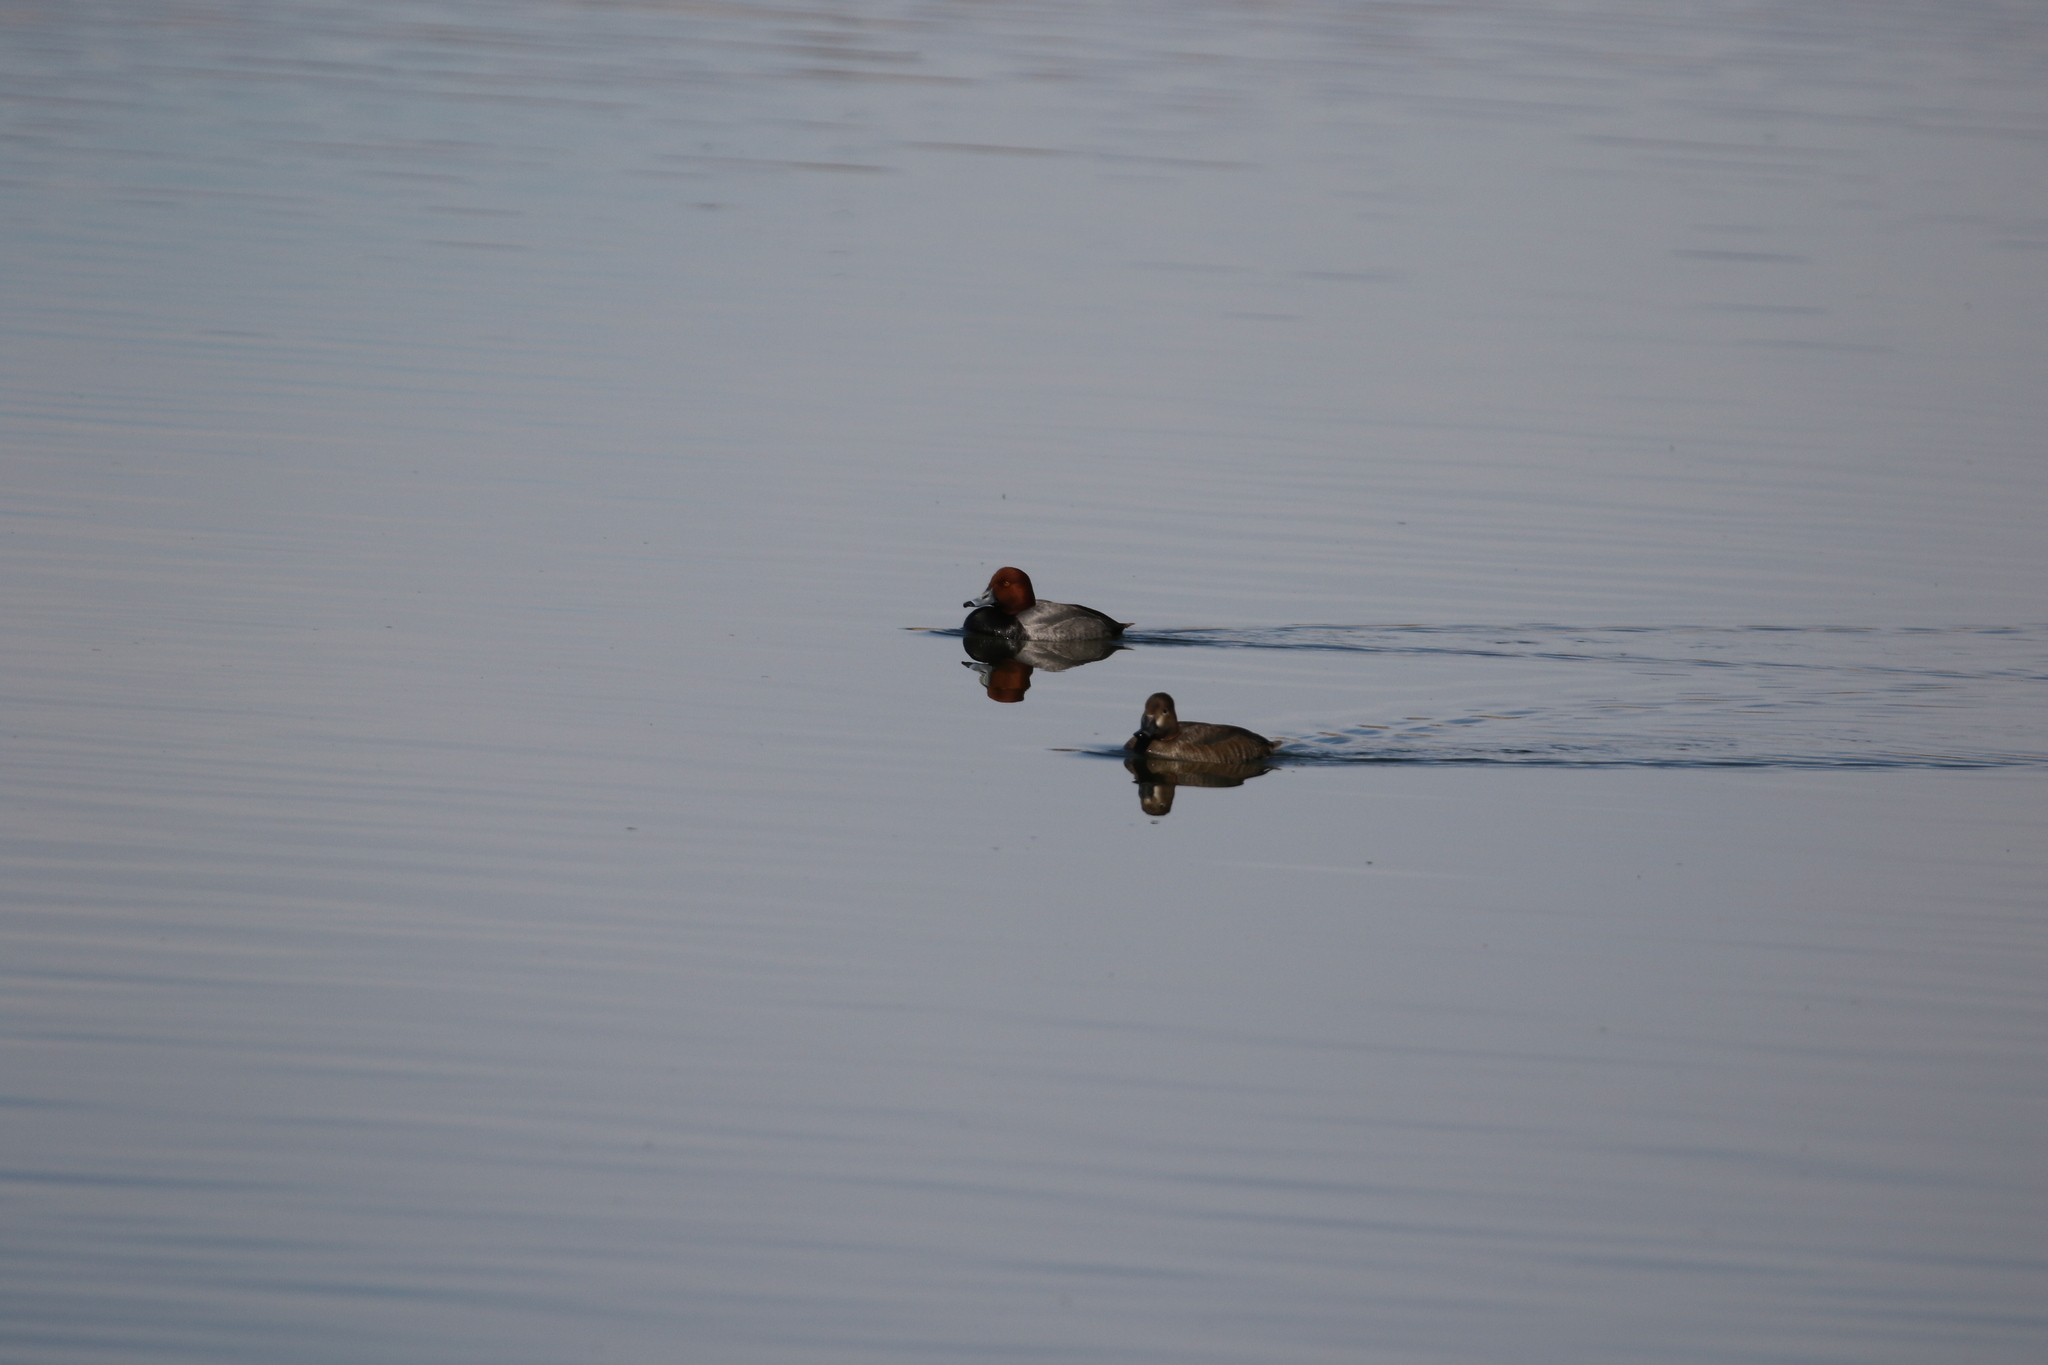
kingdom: Animalia
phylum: Chordata
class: Aves
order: Anseriformes
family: Anatidae
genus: Aythya
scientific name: Aythya americana
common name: Redhead
